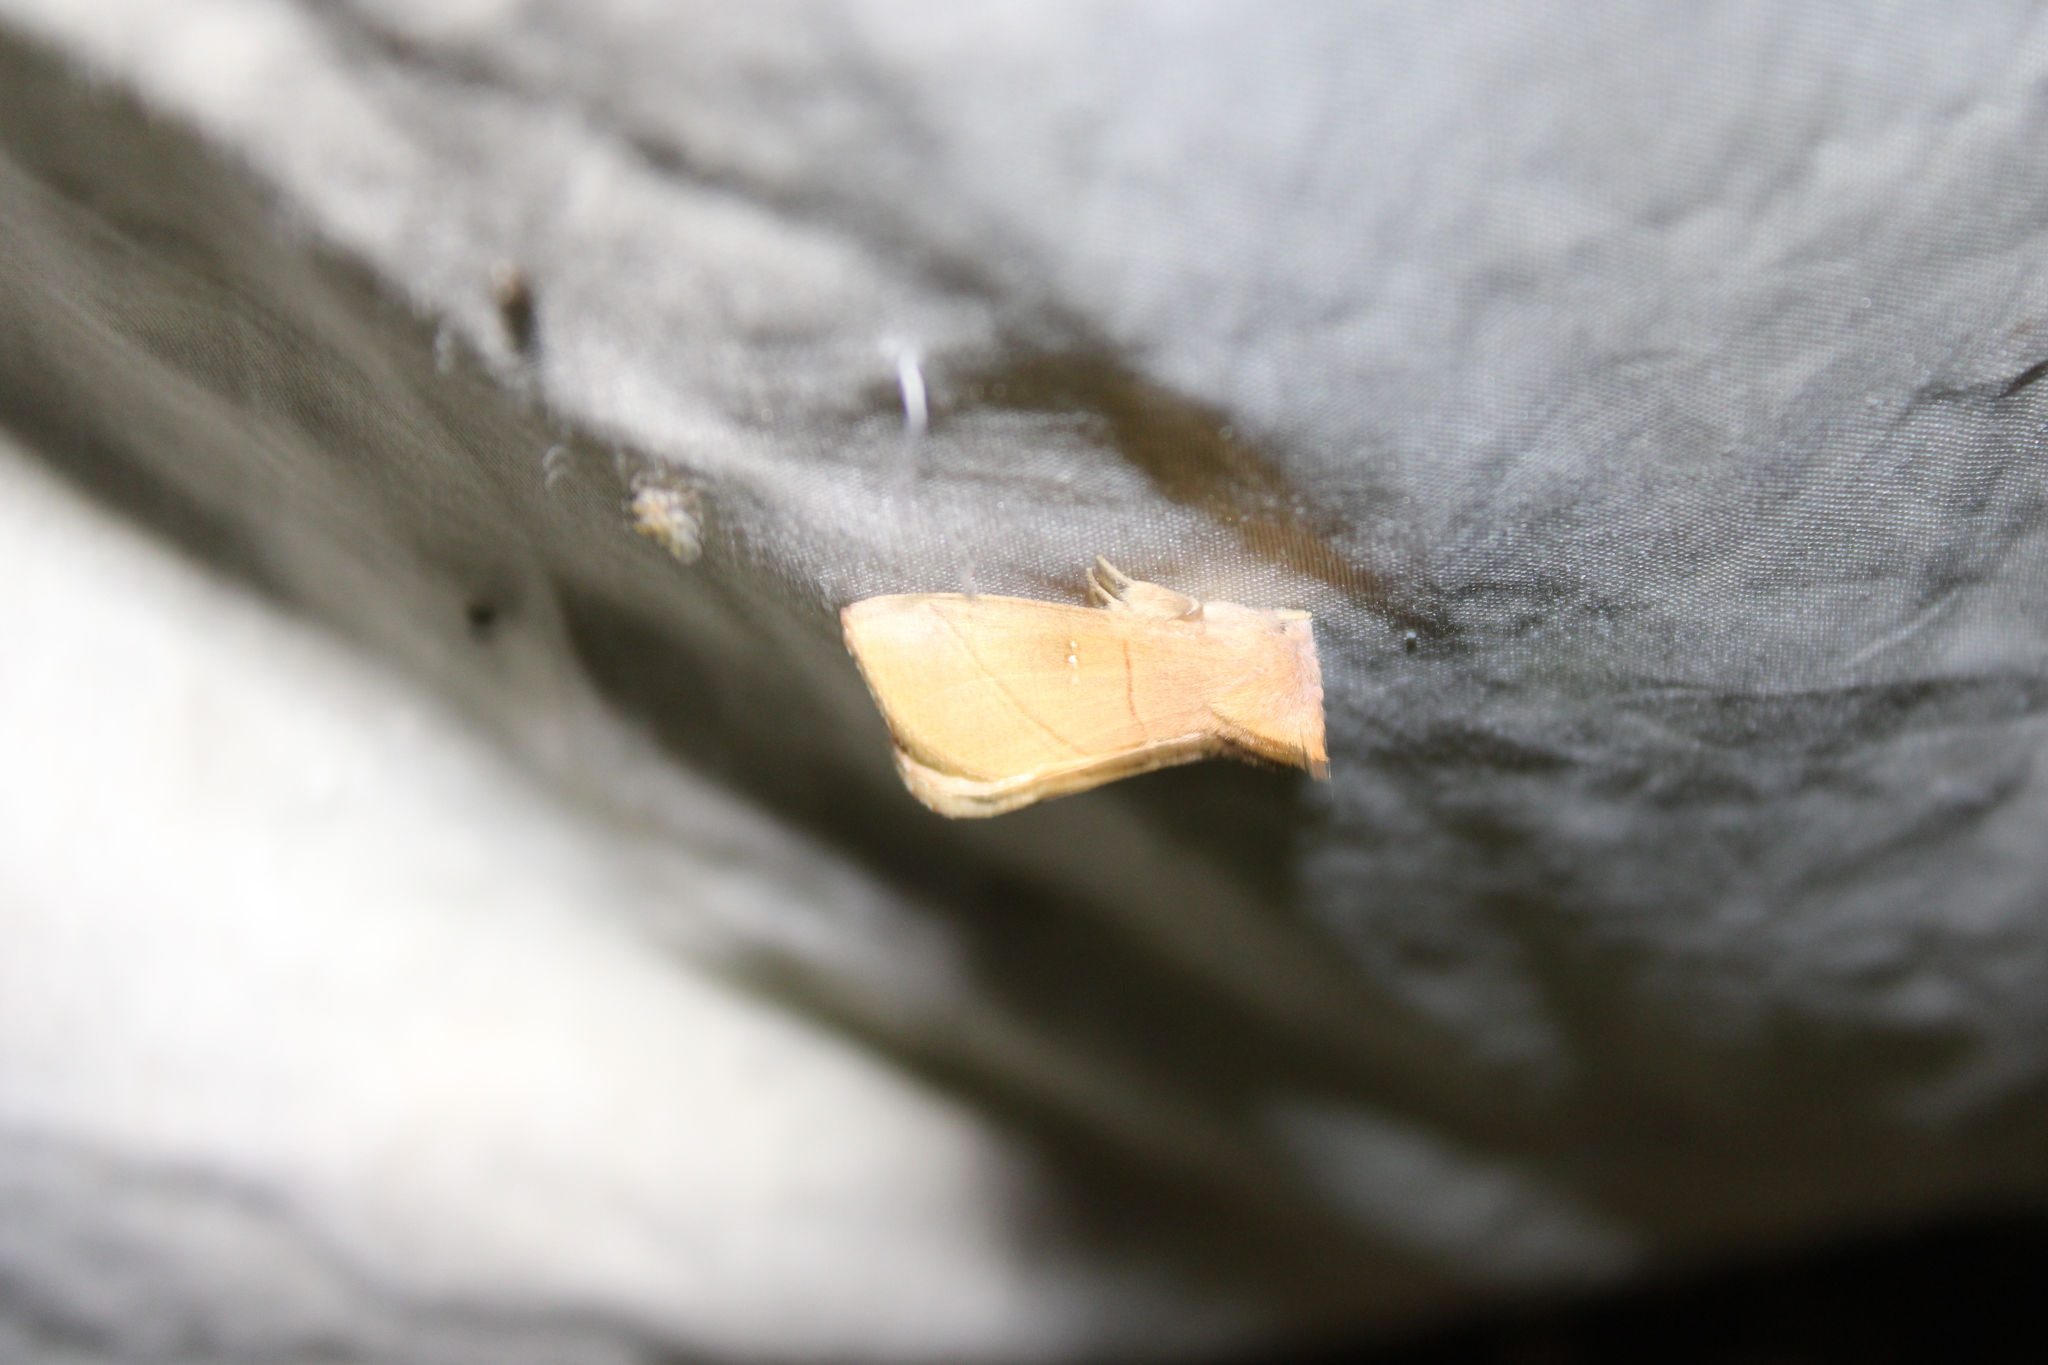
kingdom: Animalia
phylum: Arthropoda
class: Insecta
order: Lepidoptera
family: Notodontidae
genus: Nadata
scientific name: Nadata gibbosa
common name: White-dotted prominent
